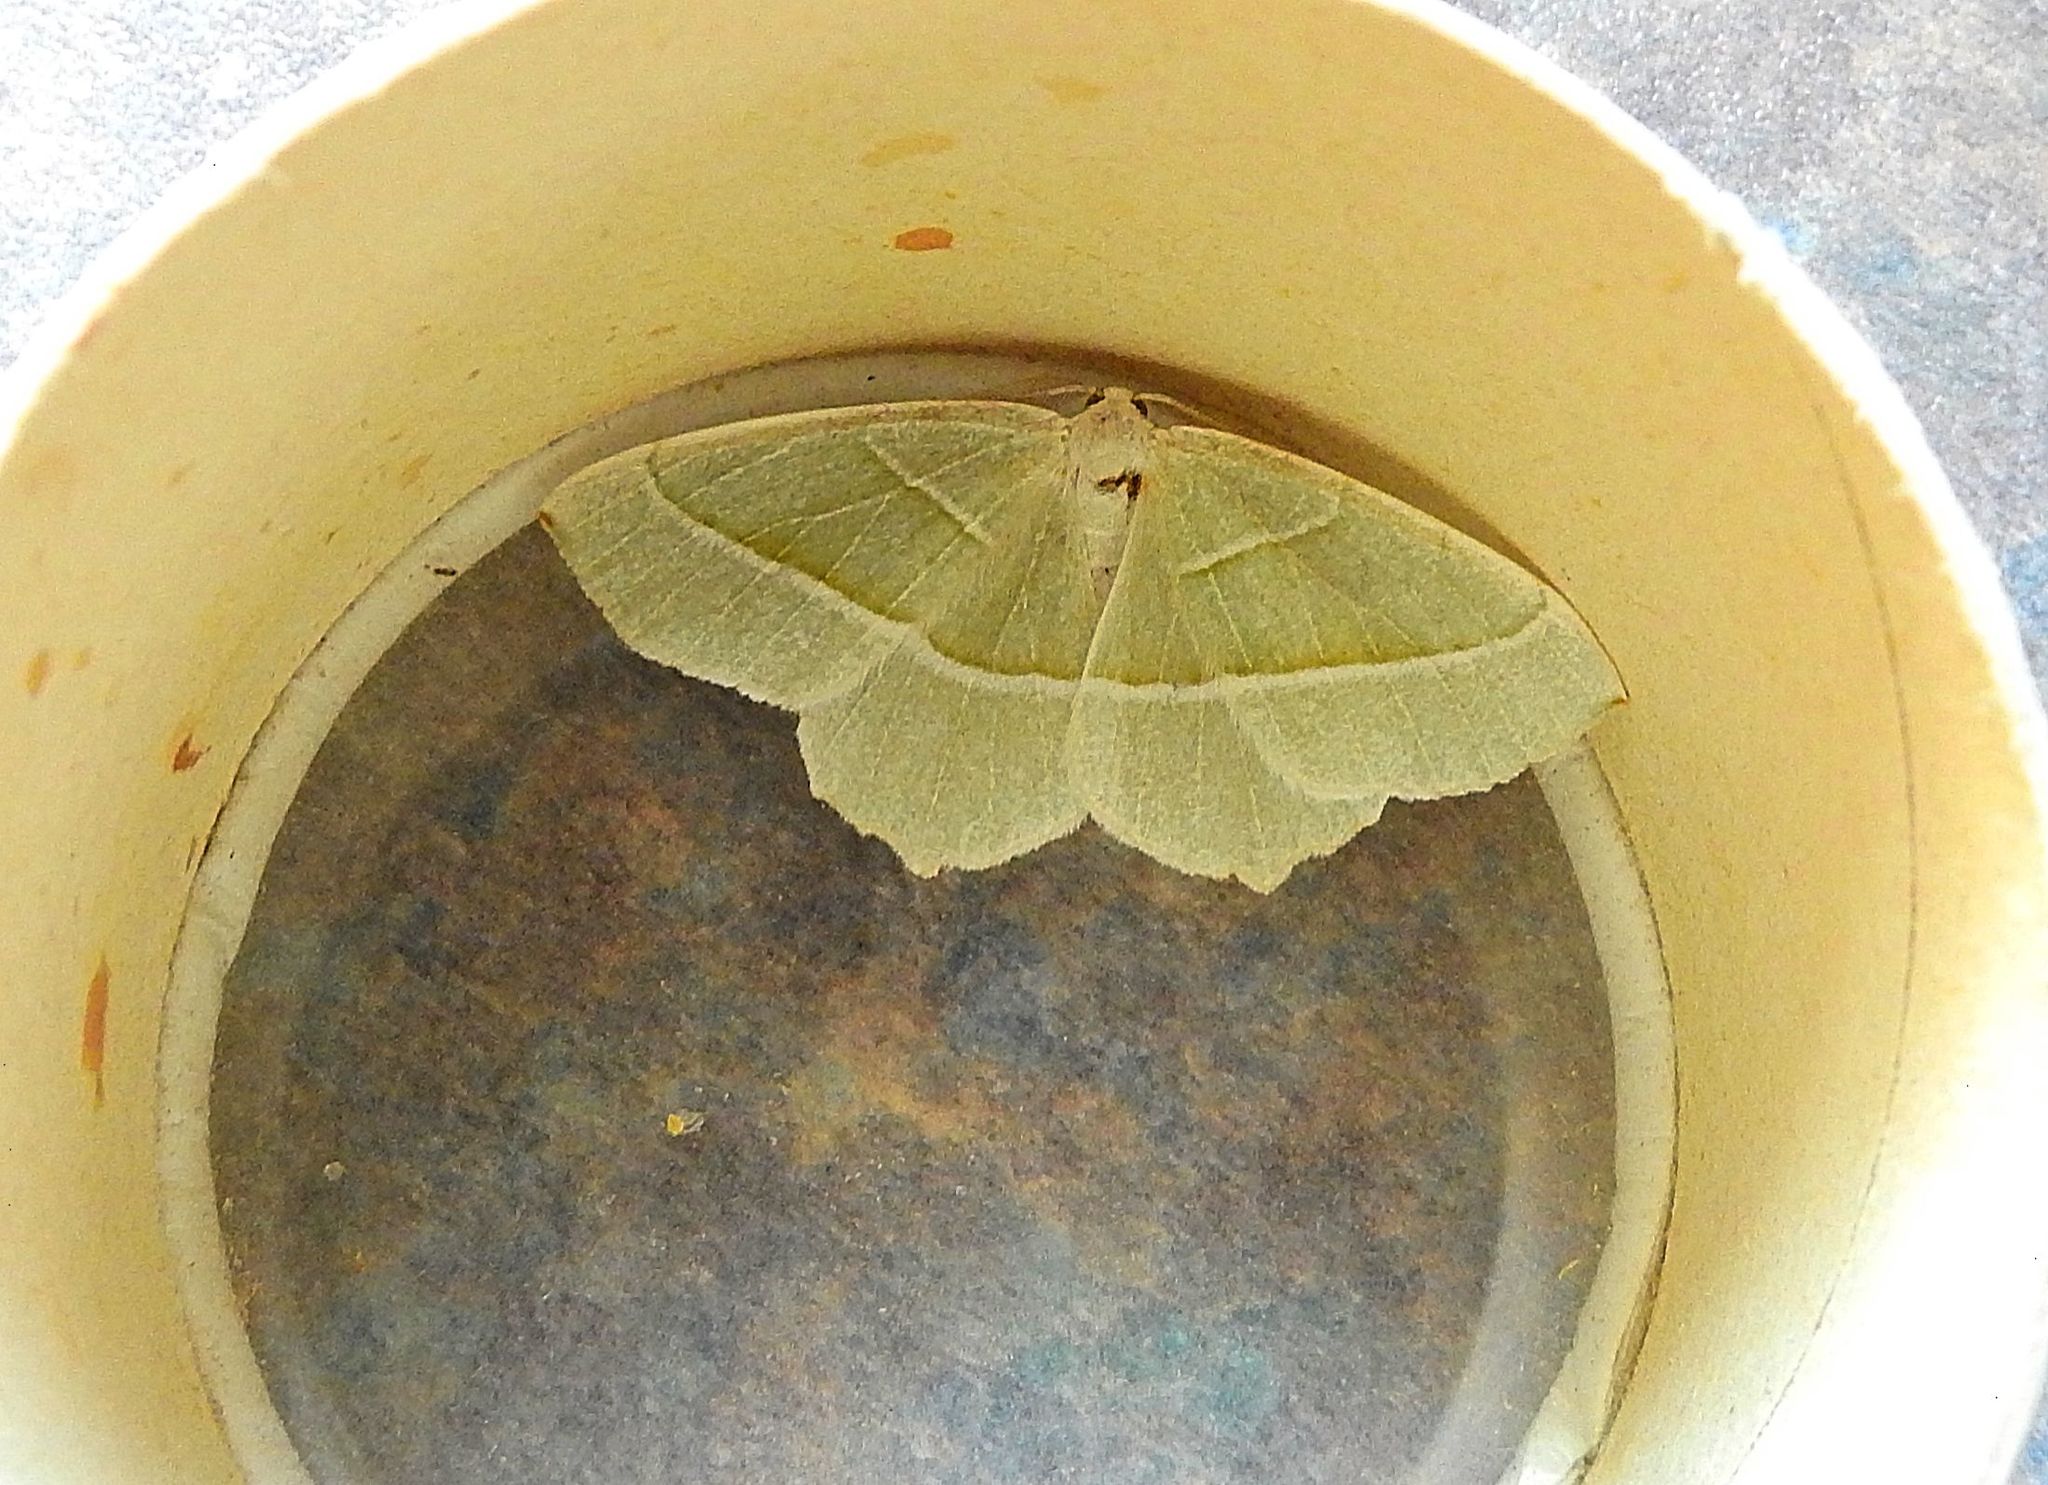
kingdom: Animalia
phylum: Arthropoda
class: Insecta
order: Lepidoptera
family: Geometridae
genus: Campaea
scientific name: Campaea margaritaria
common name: Light emerald
